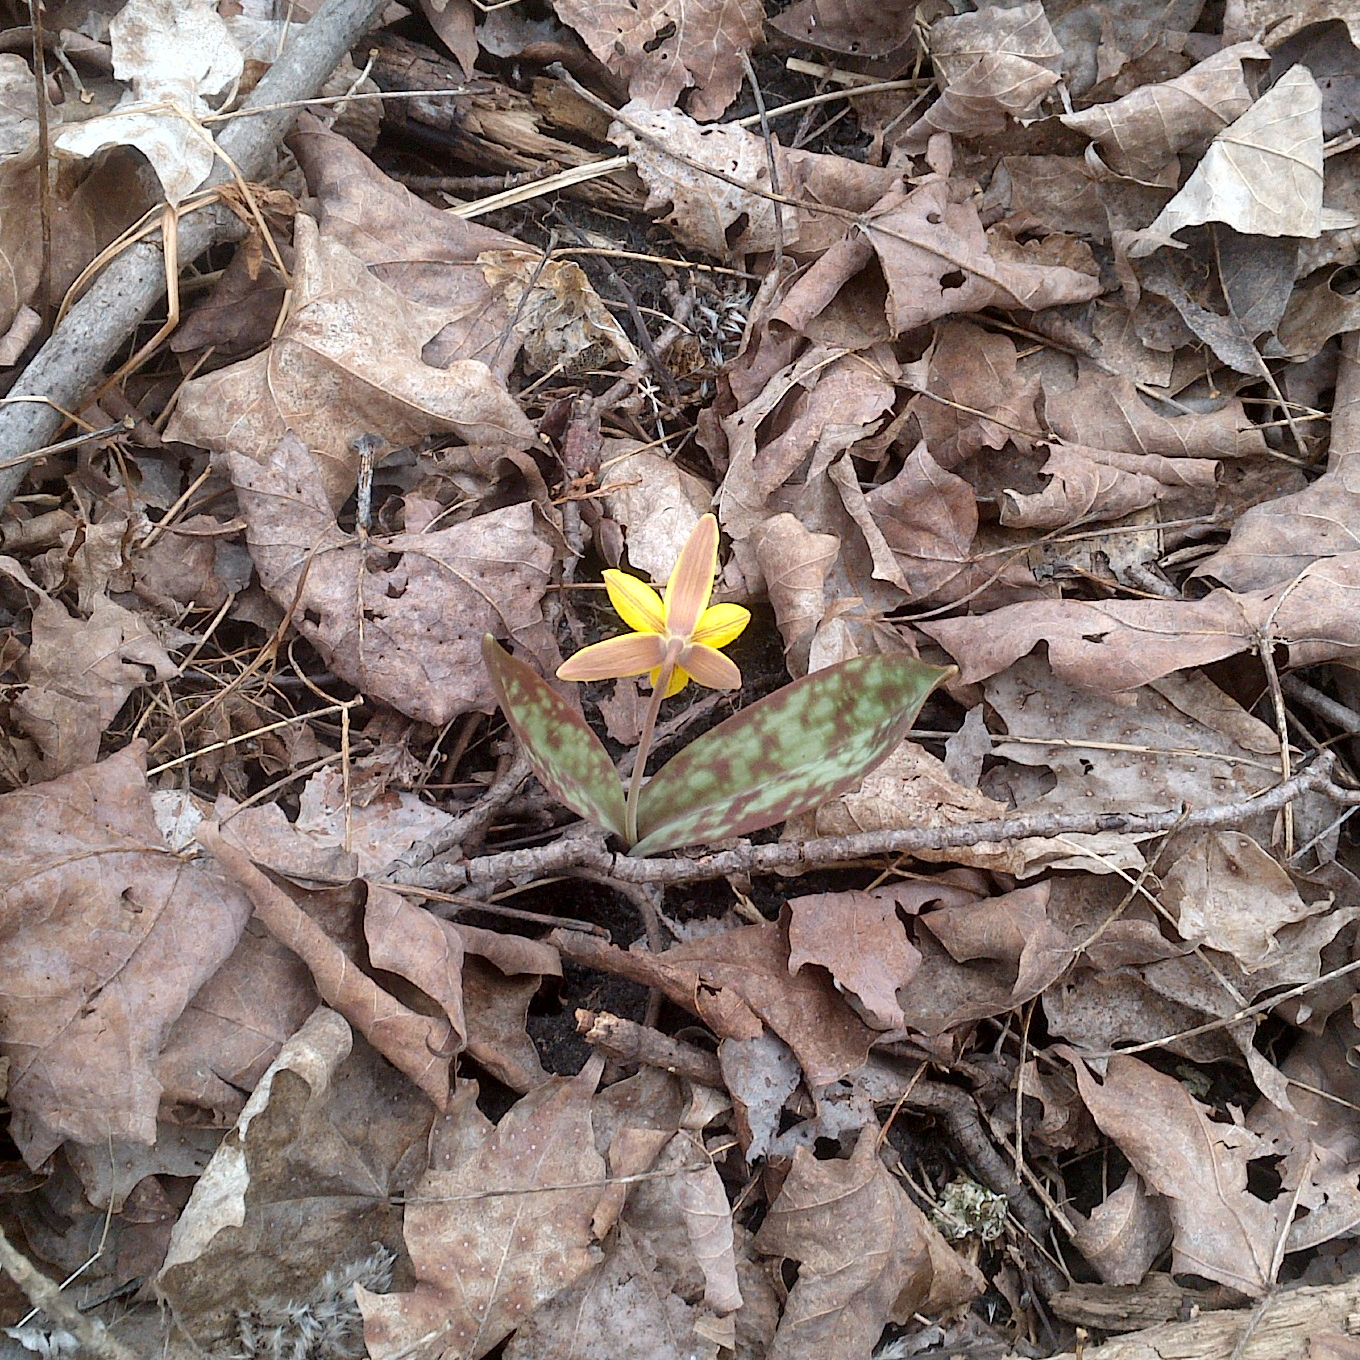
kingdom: Plantae
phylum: Tracheophyta
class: Liliopsida
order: Liliales
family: Liliaceae
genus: Erythronium
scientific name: Erythronium americanum
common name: Yellow adder's-tongue
